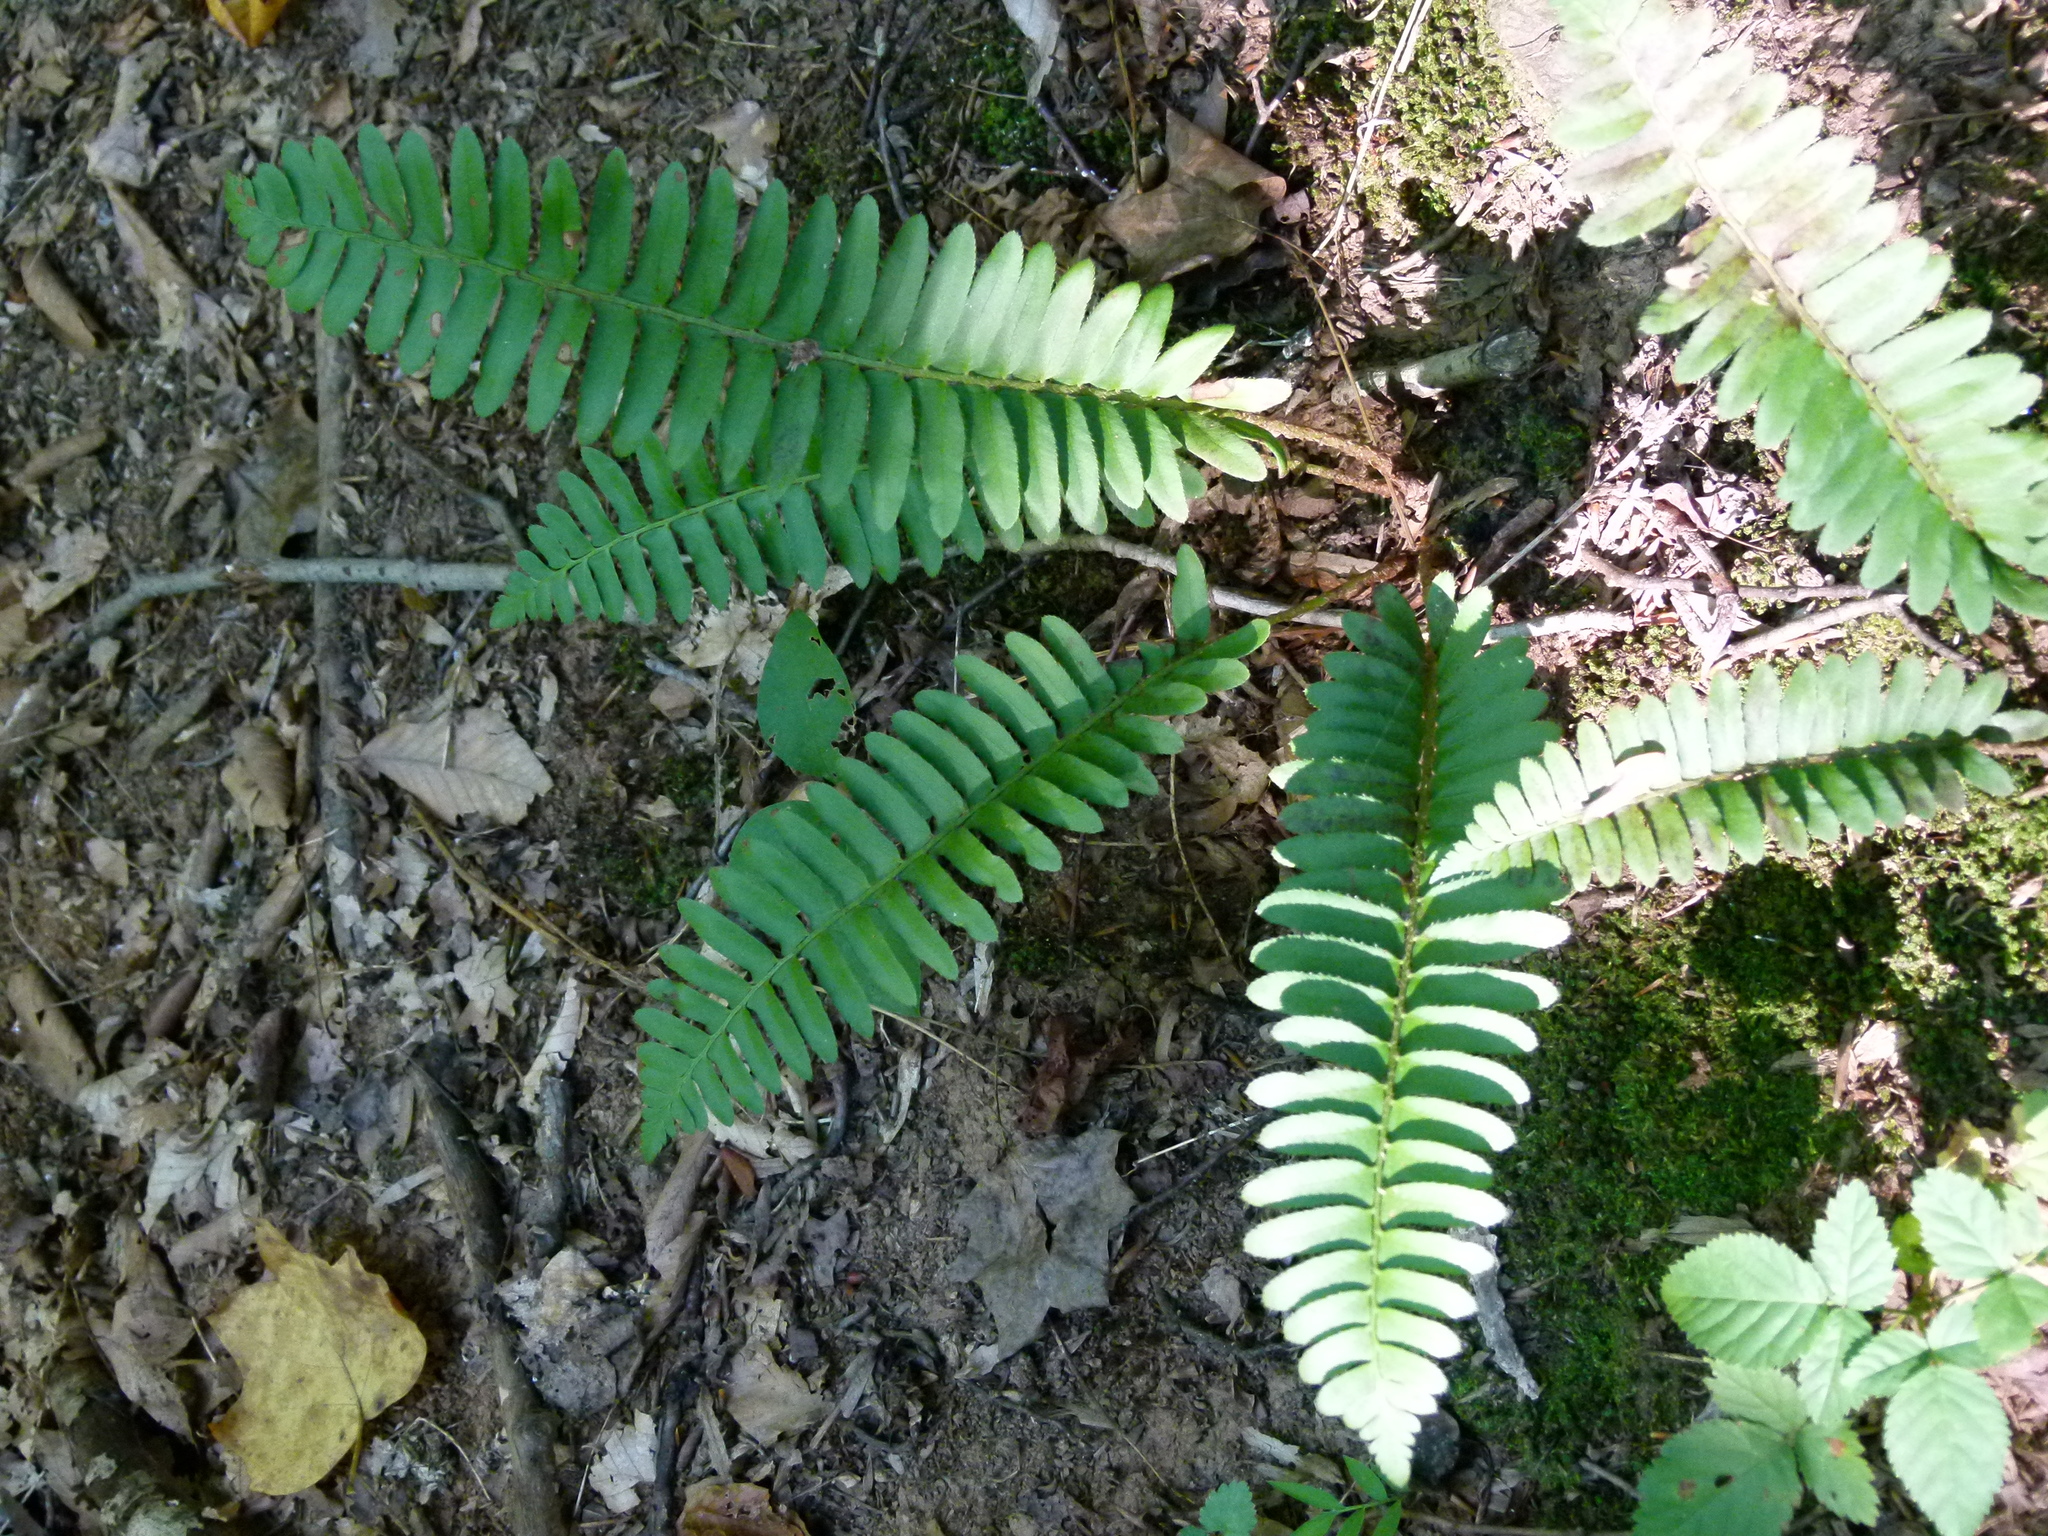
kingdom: Plantae
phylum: Tracheophyta
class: Polypodiopsida
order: Polypodiales
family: Dryopteridaceae
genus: Polystichum
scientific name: Polystichum acrostichoides
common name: Christmas fern
